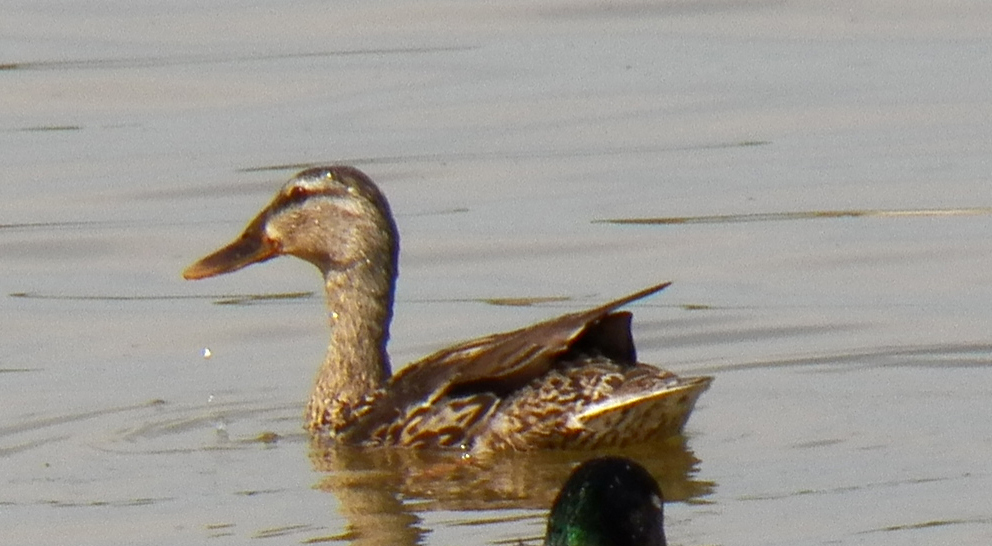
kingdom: Animalia
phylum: Chordata
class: Aves
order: Anseriformes
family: Anatidae
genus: Anas
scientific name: Anas platyrhynchos
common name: Mallard
